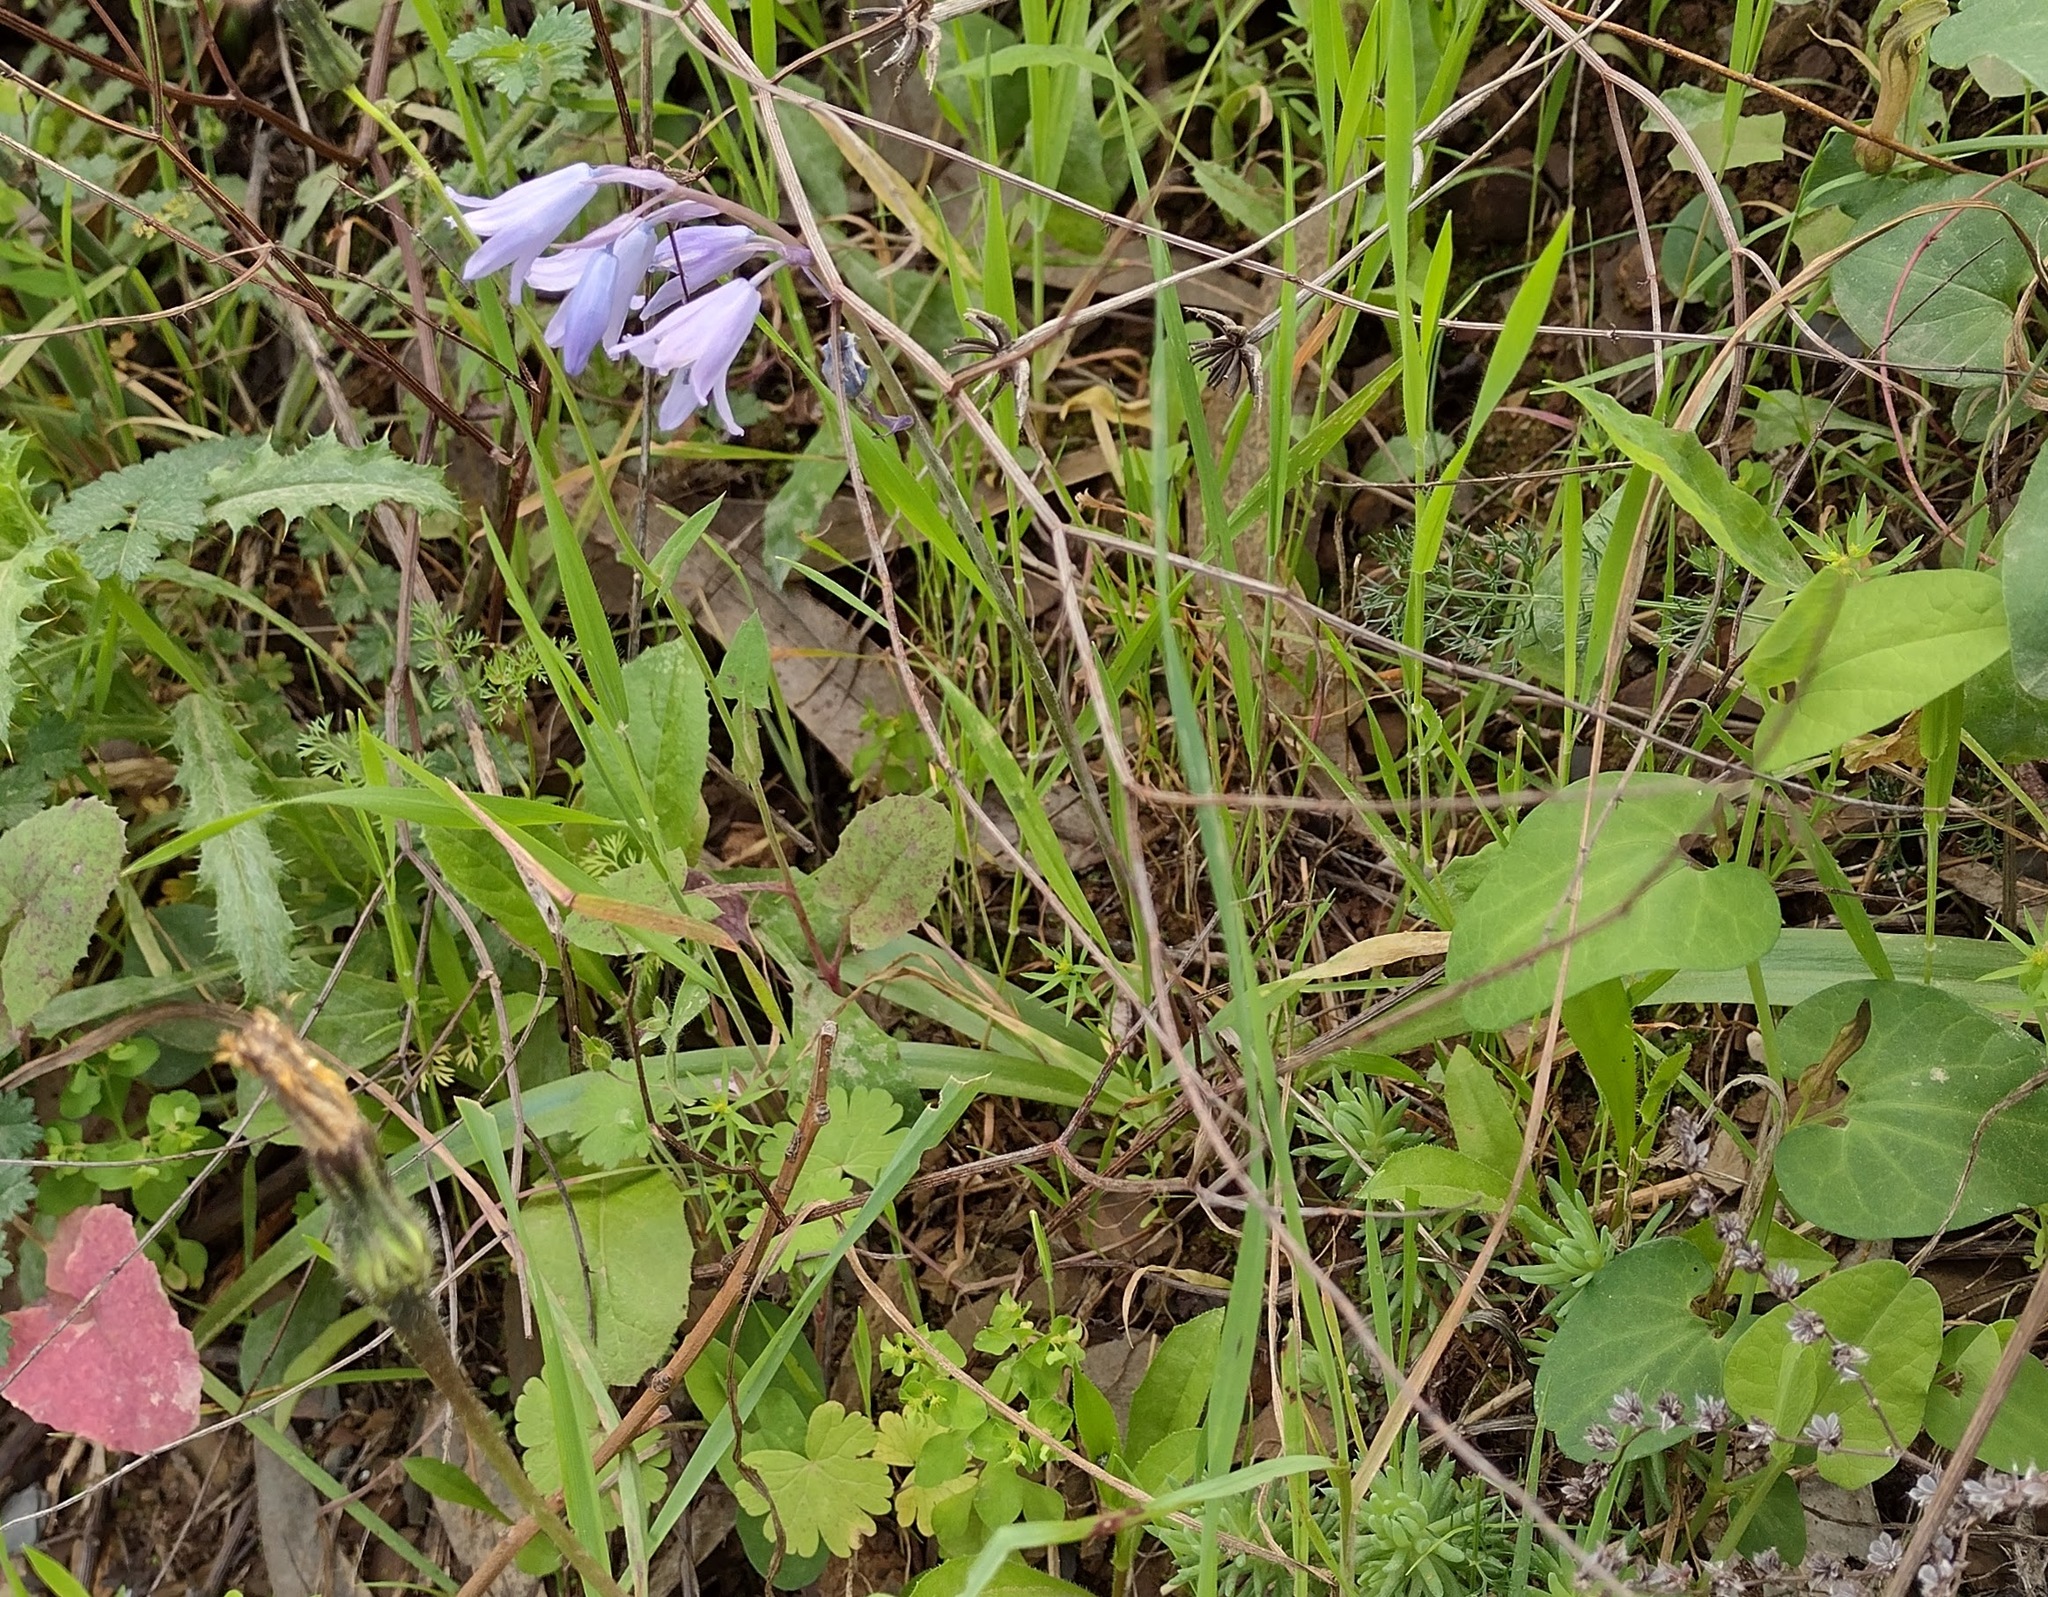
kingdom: Plantae
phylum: Tracheophyta
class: Liliopsida
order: Asparagales
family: Asparagaceae
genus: Hyacinthoides
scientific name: Hyacinthoides hispanica
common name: Spanish bluebell
